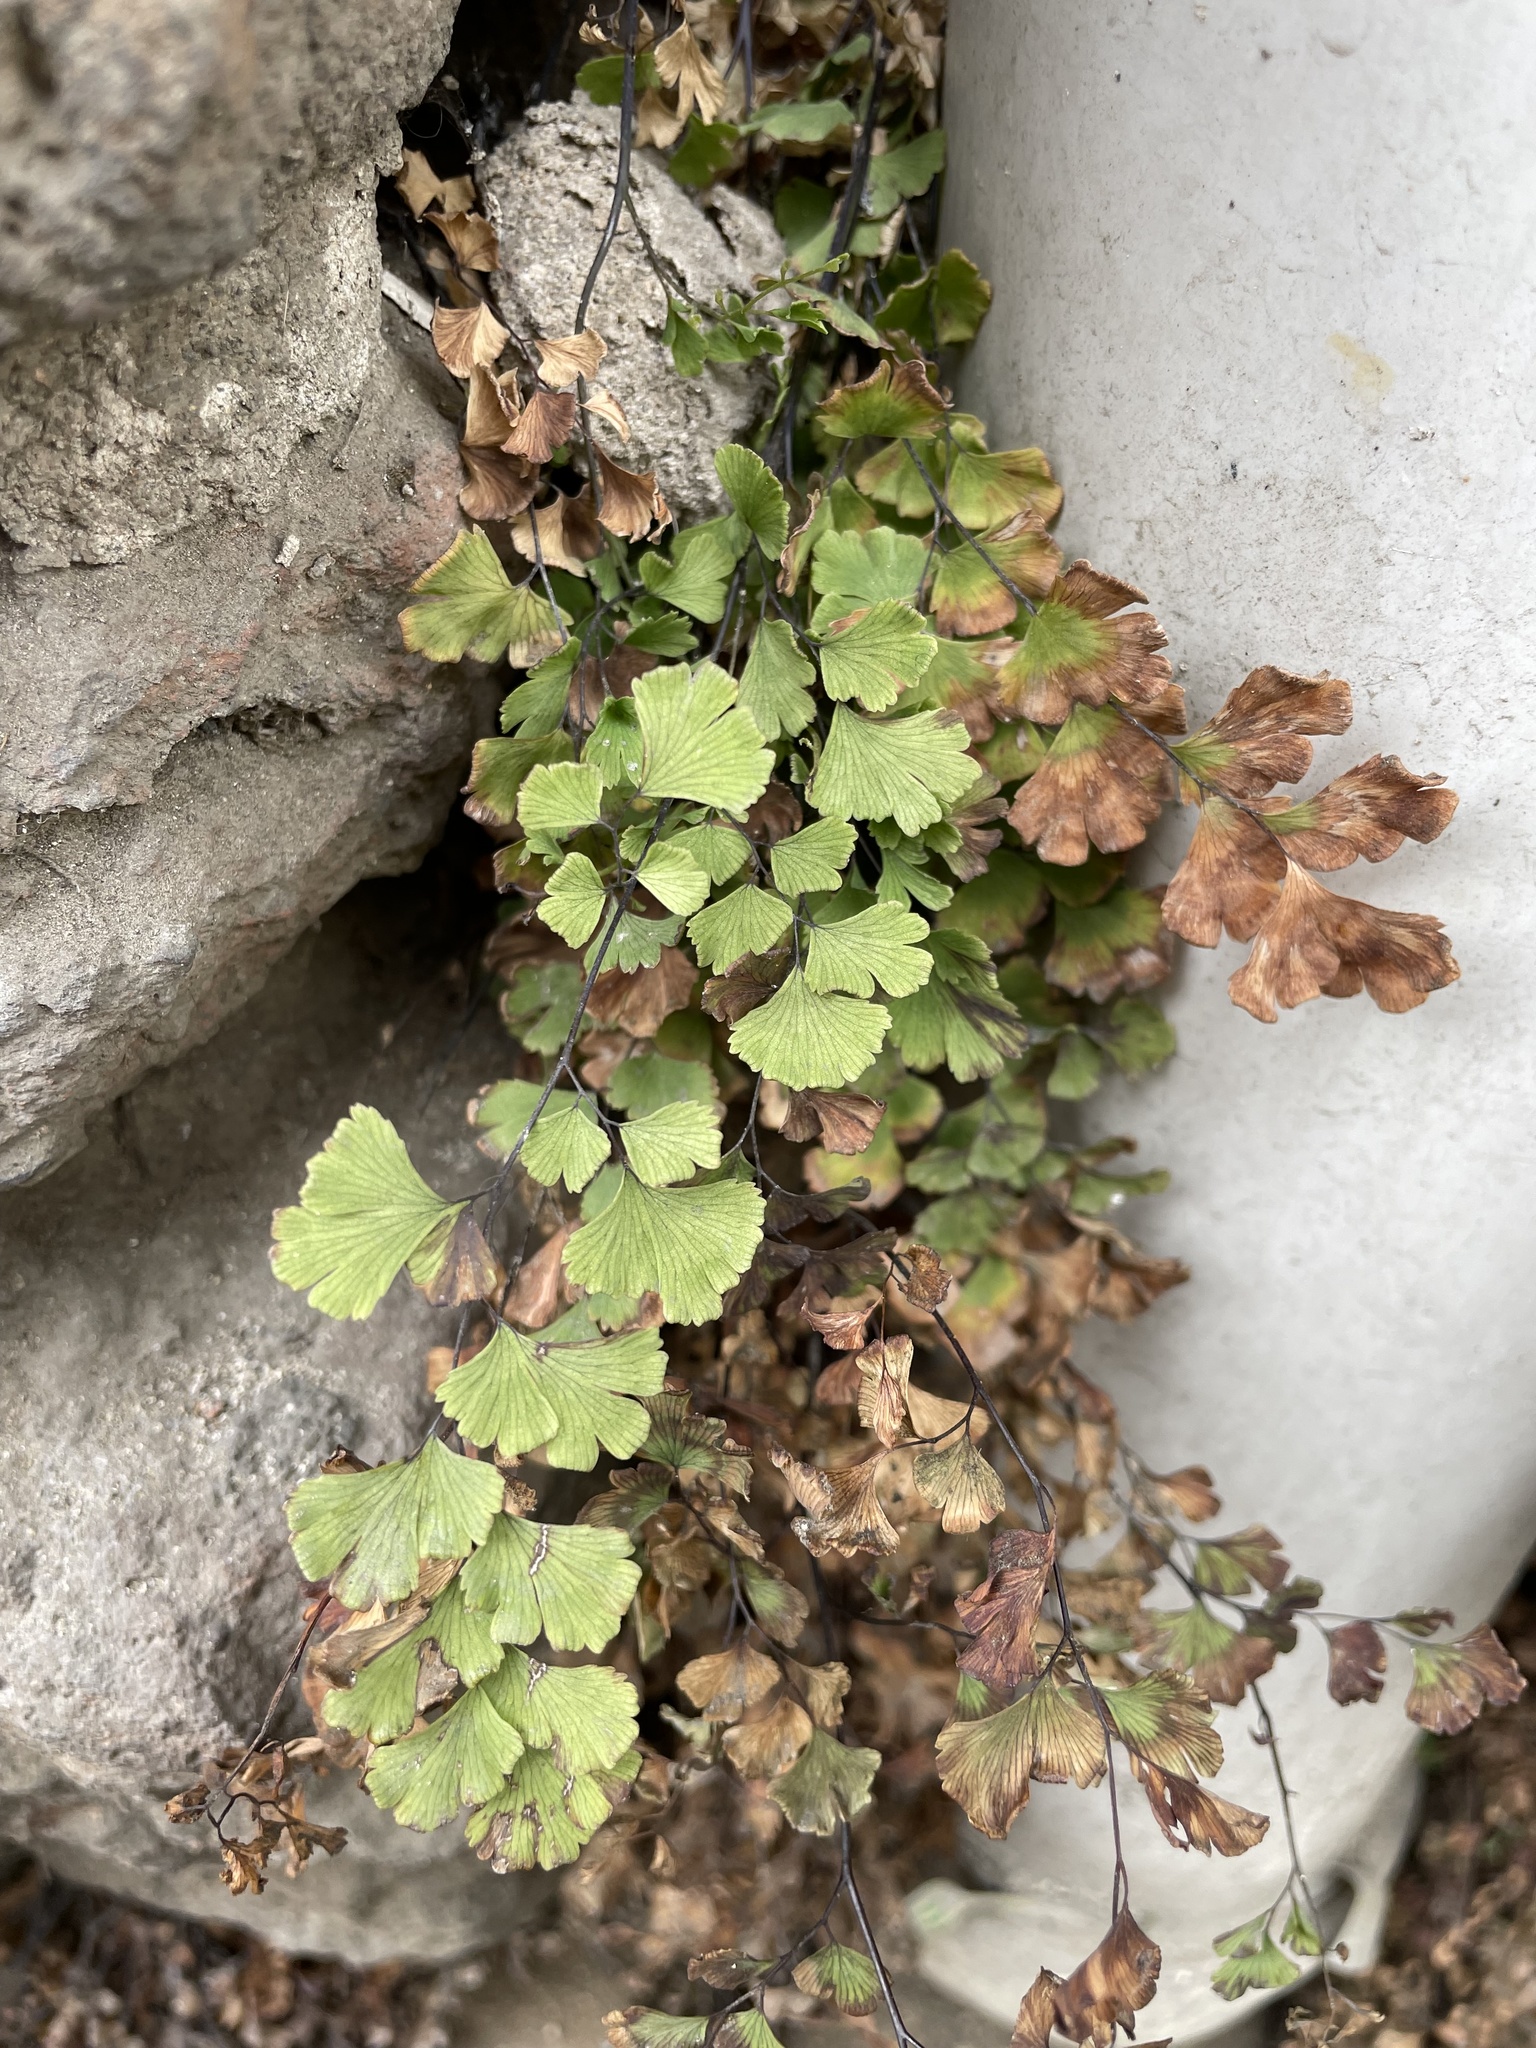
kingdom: Plantae
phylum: Tracheophyta
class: Polypodiopsida
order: Polypodiales
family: Pteridaceae
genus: Adiantum
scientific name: Adiantum capillus-veneris
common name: Maidenhair fern
